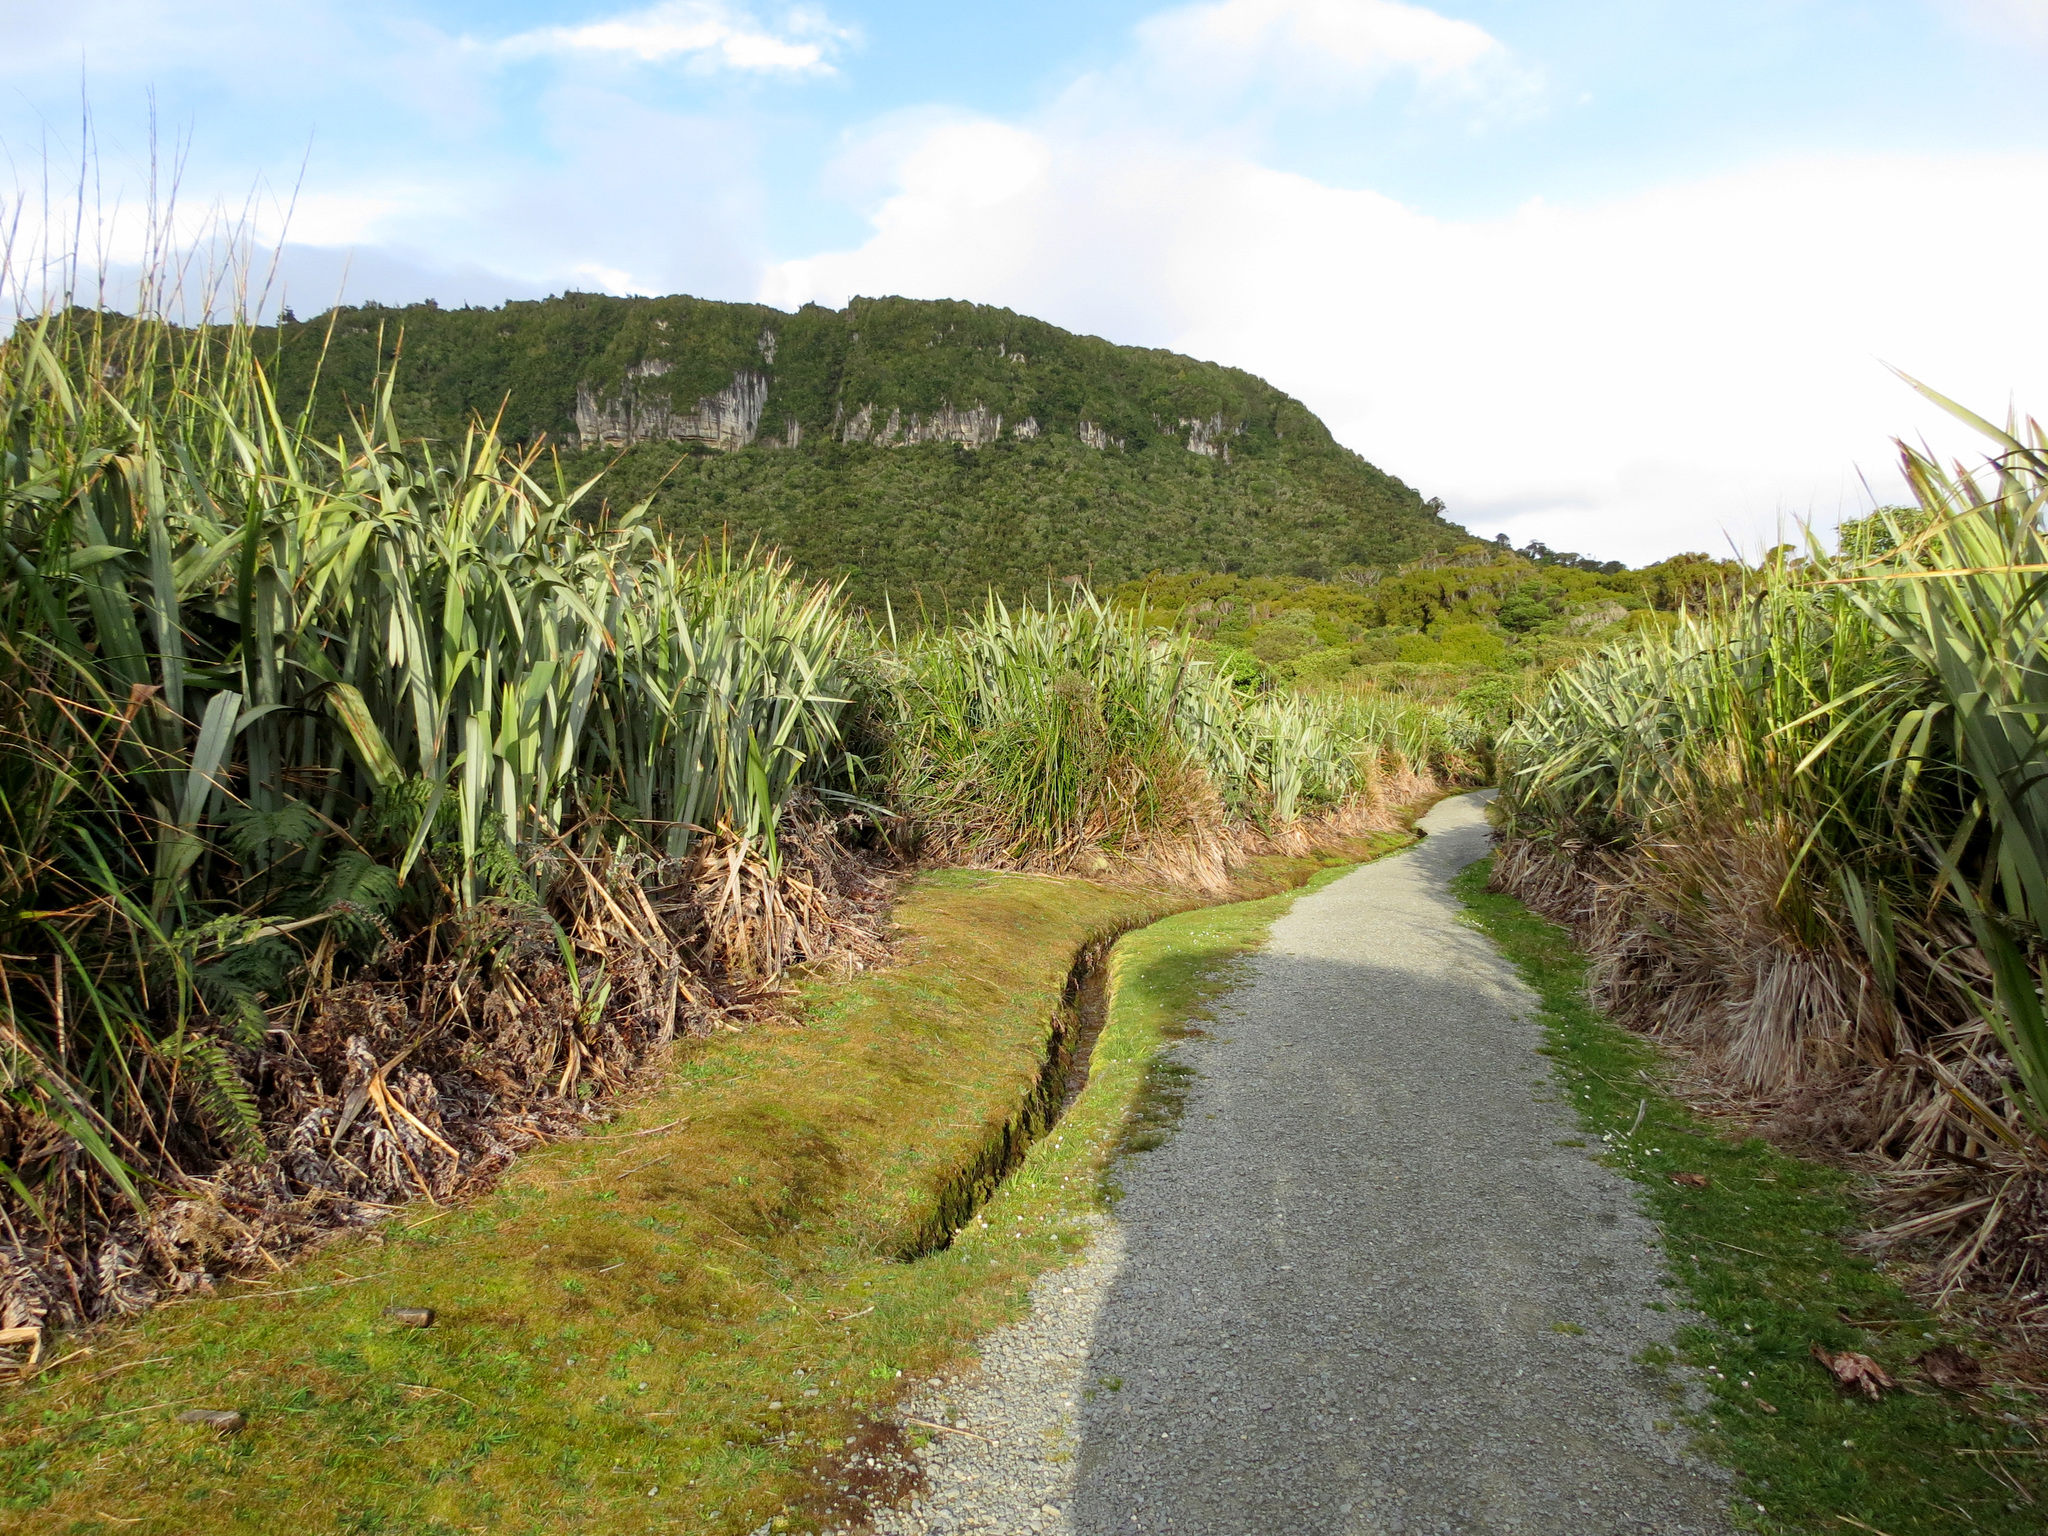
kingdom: Plantae
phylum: Tracheophyta
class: Liliopsida
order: Asparagales
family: Asphodelaceae
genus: Phormium
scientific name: Phormium tenax
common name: New zealand flax
